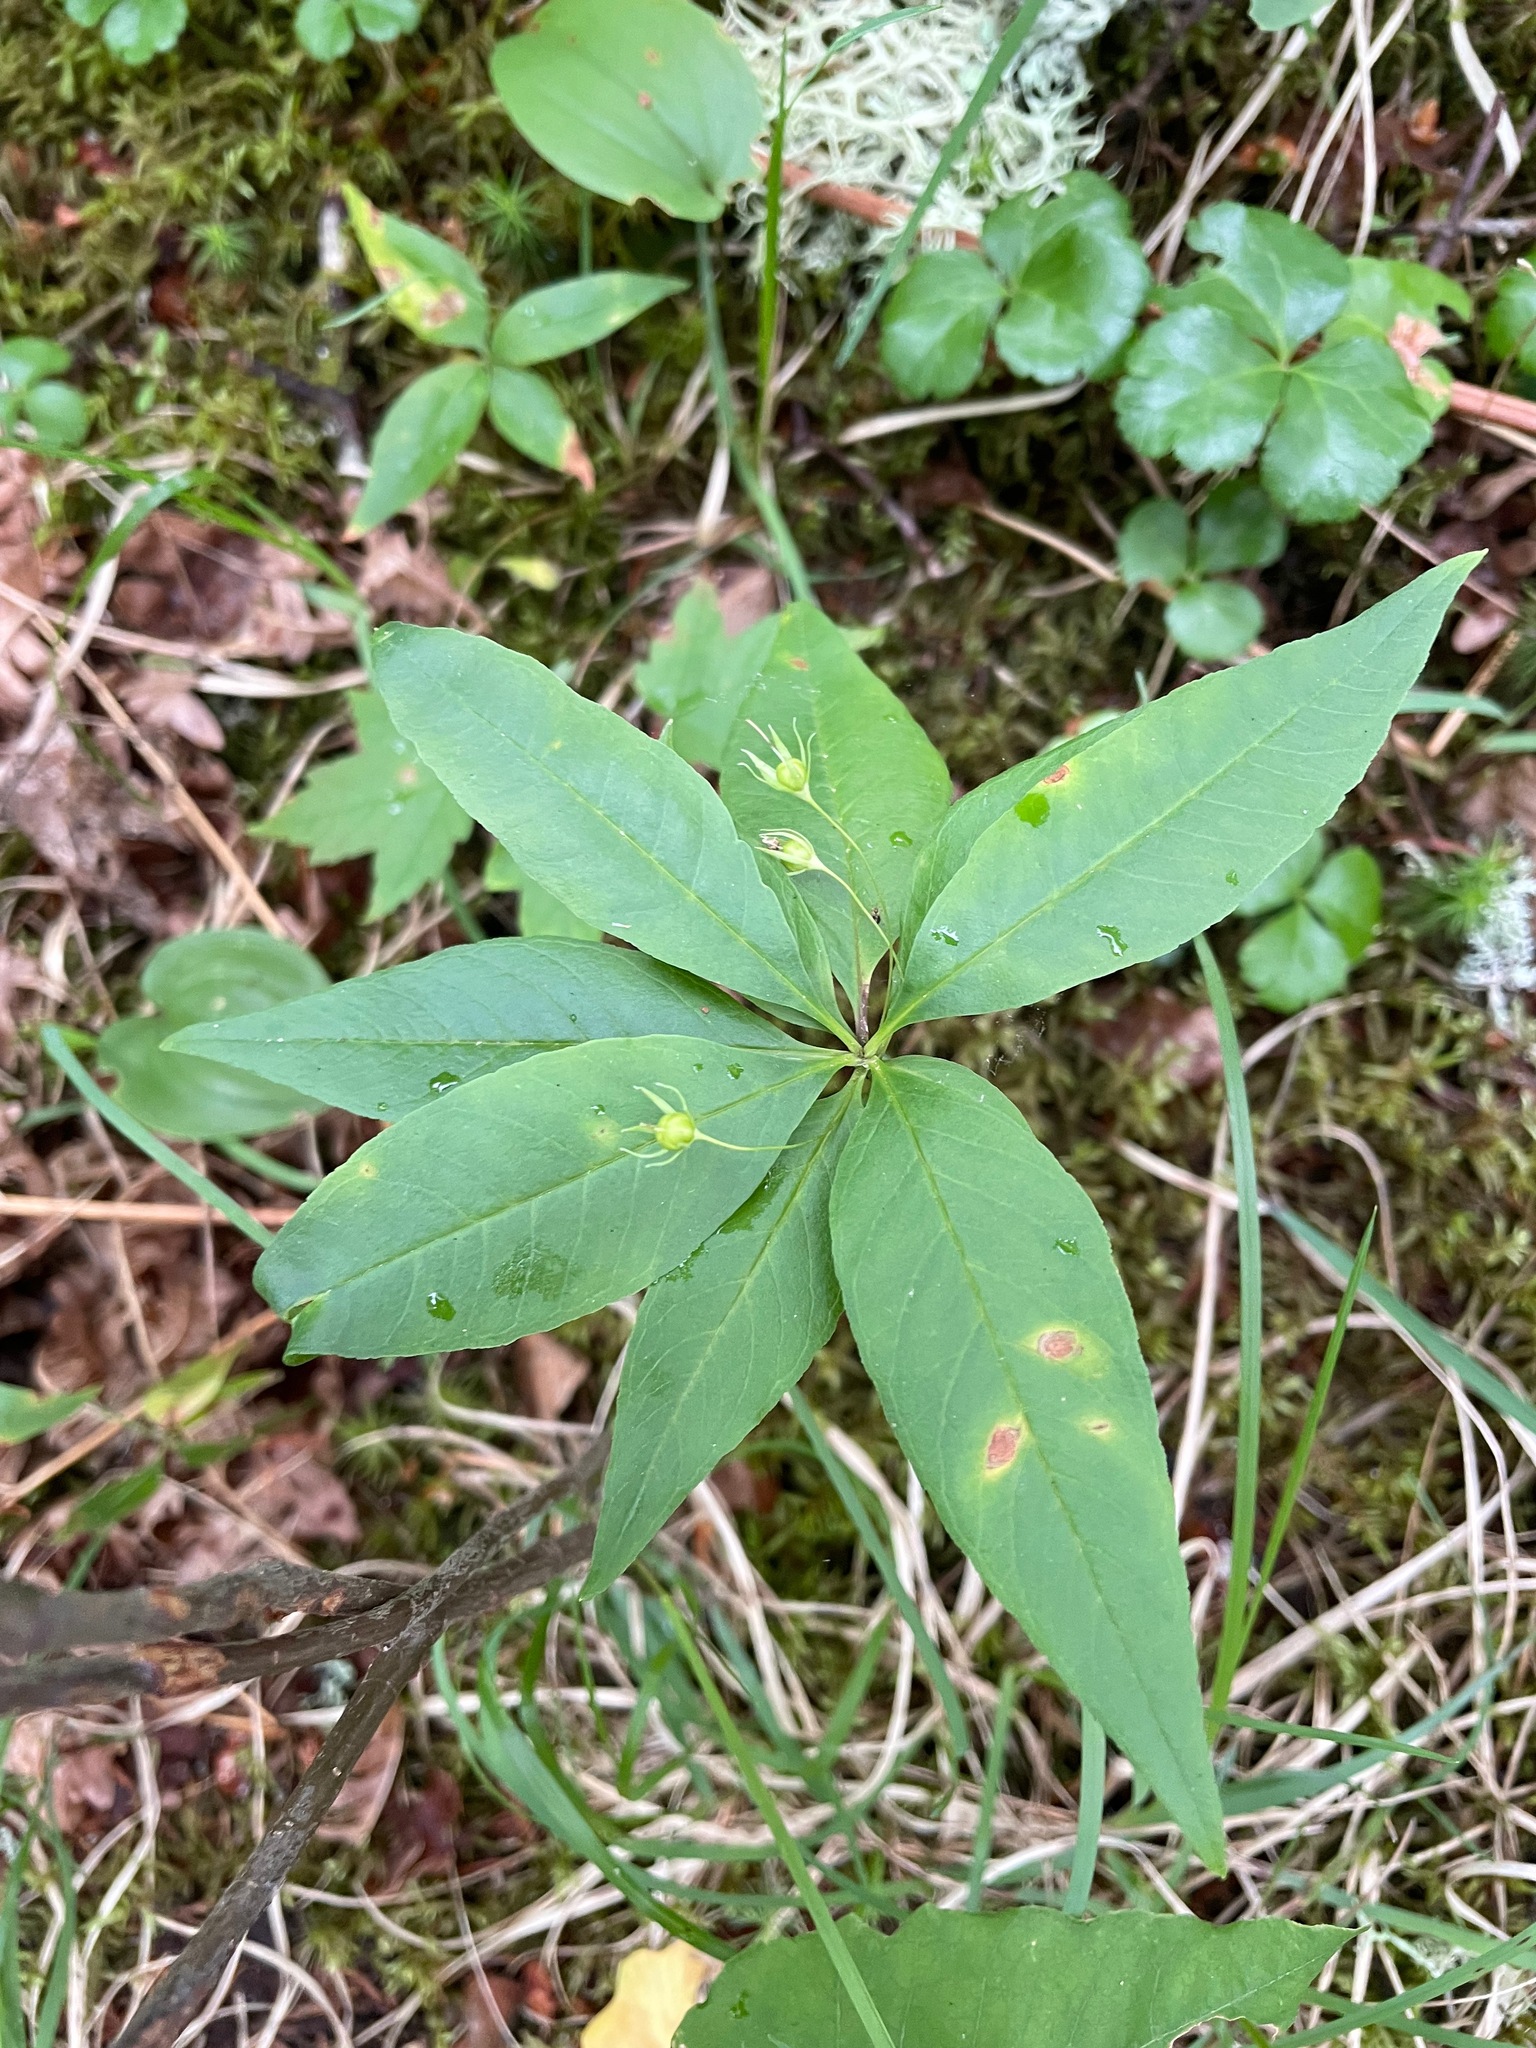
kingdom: Plantae
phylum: Tracheophyta
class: Magnoliopsida
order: Ericales
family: Primulaceae
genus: Lysimachia
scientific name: Lysimachia borealis
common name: American starflower
